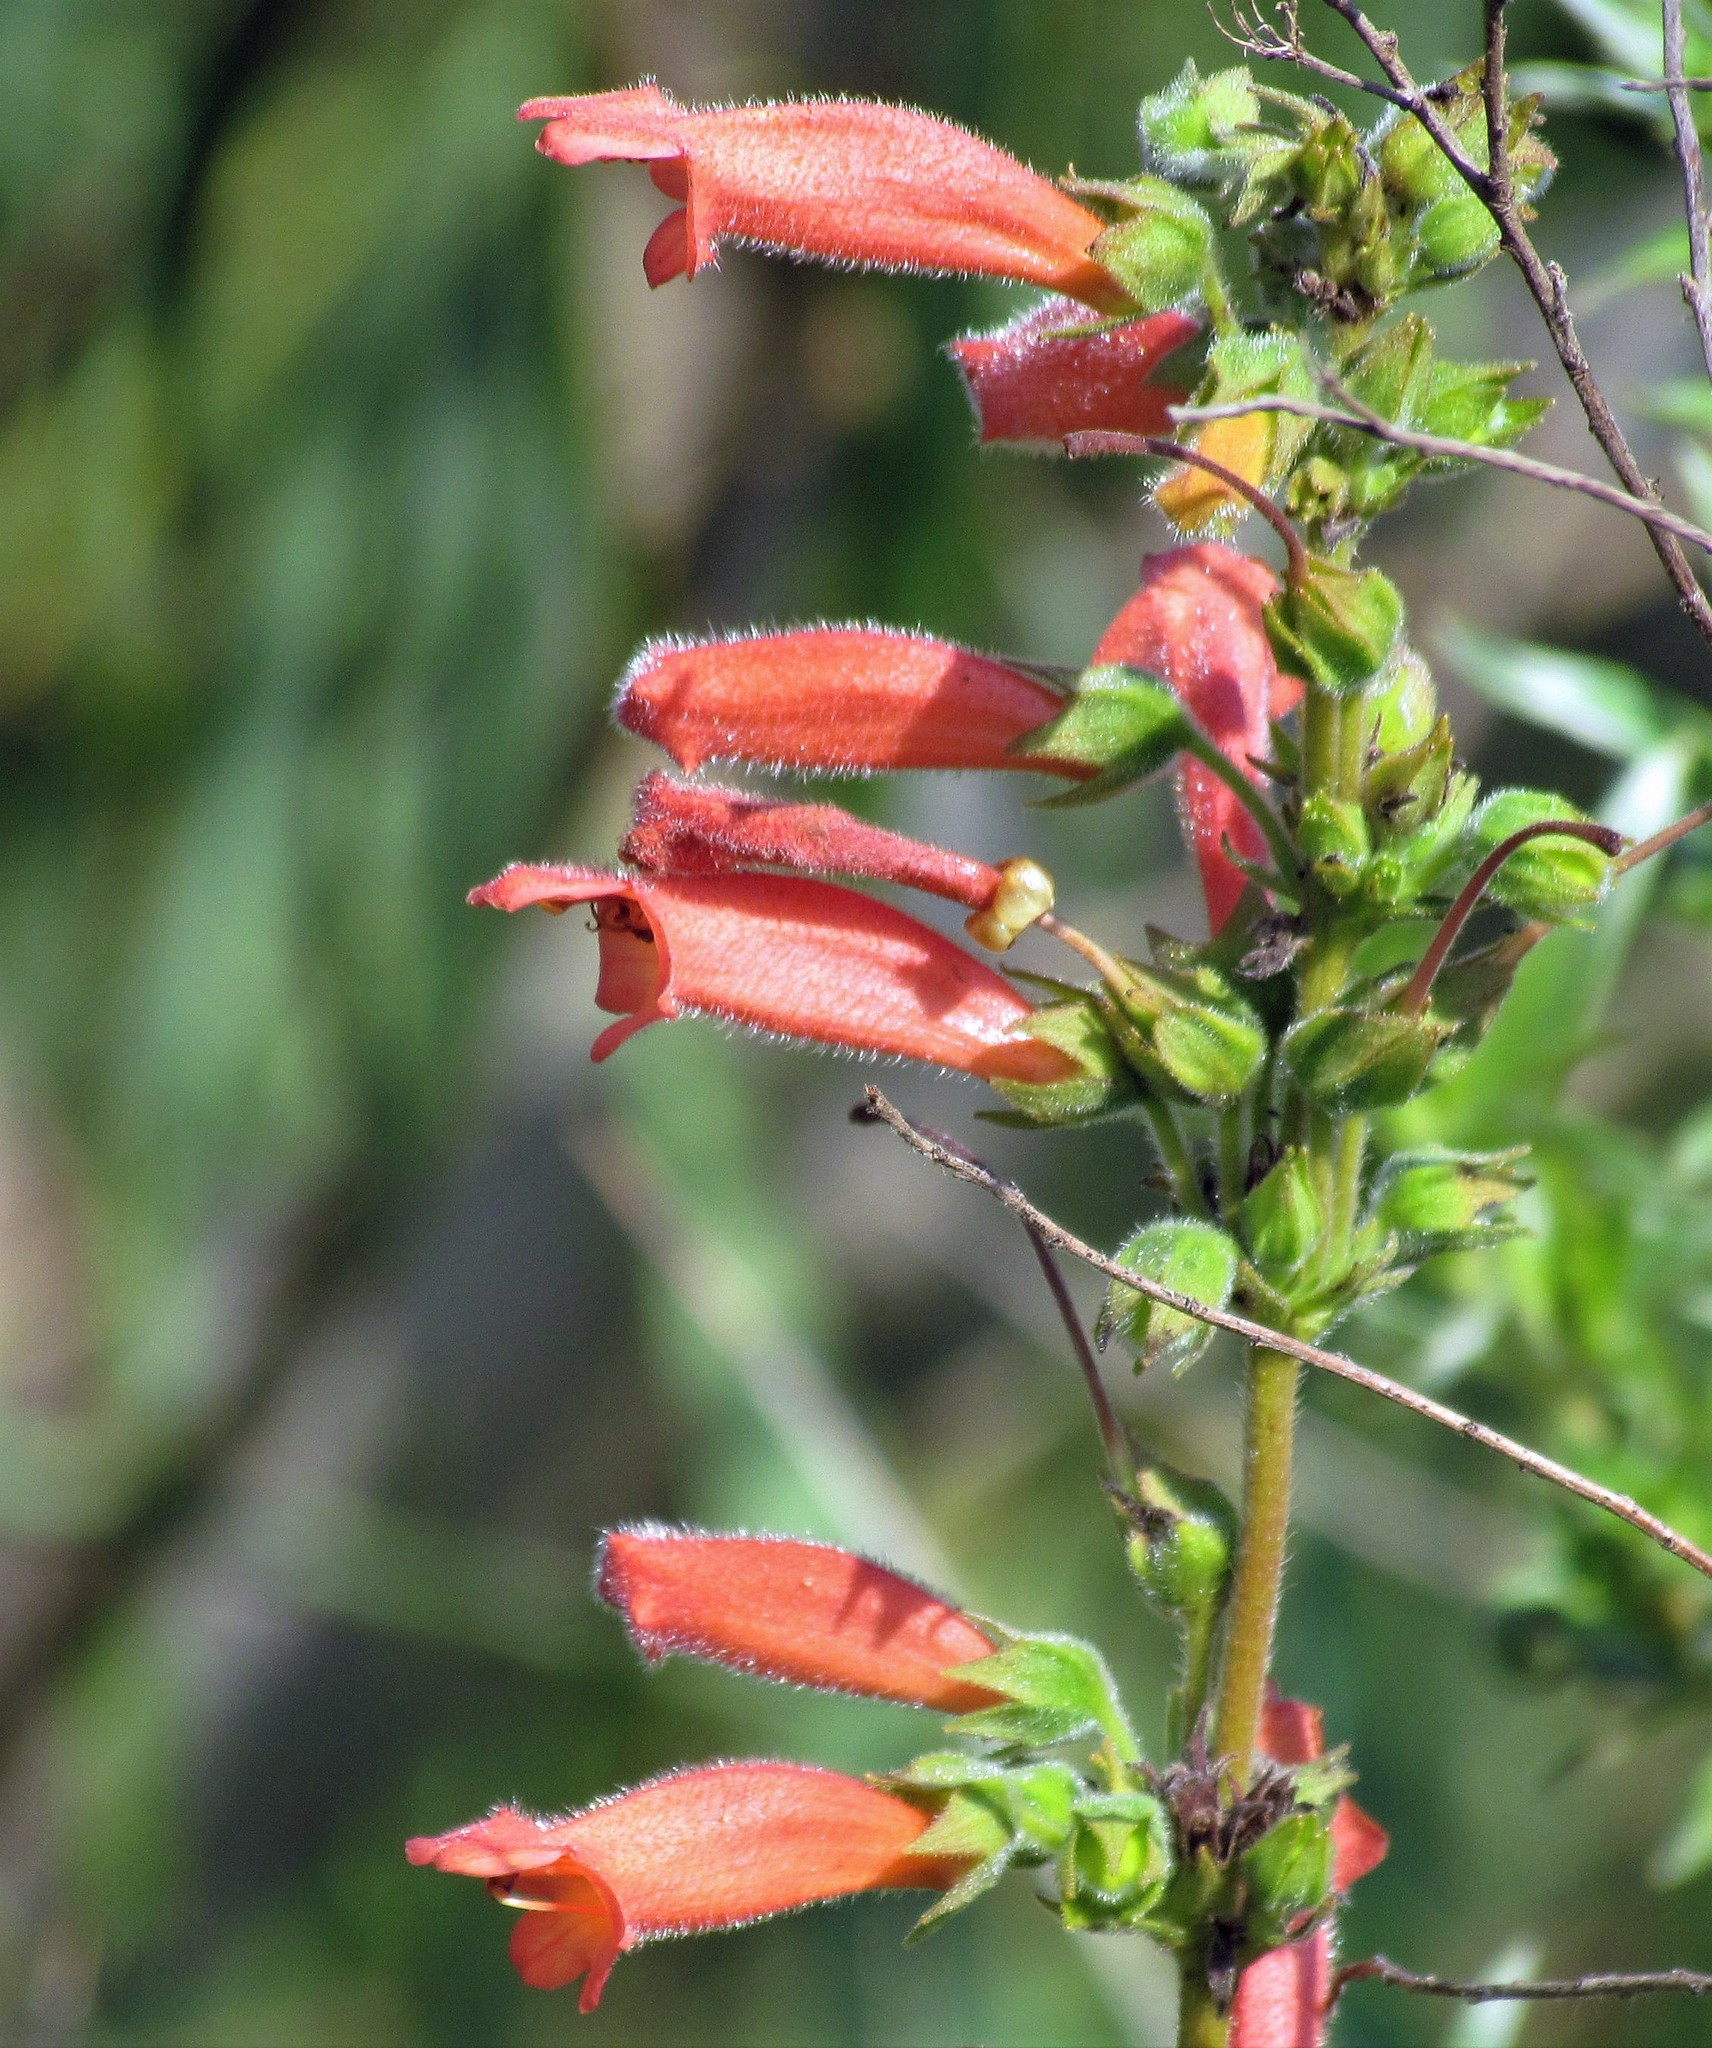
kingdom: Plantae
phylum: Tracheophyta
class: Magnoliopsida
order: Lamiales
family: Gesneriaceae
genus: Sinningia
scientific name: Sinningia elatior
